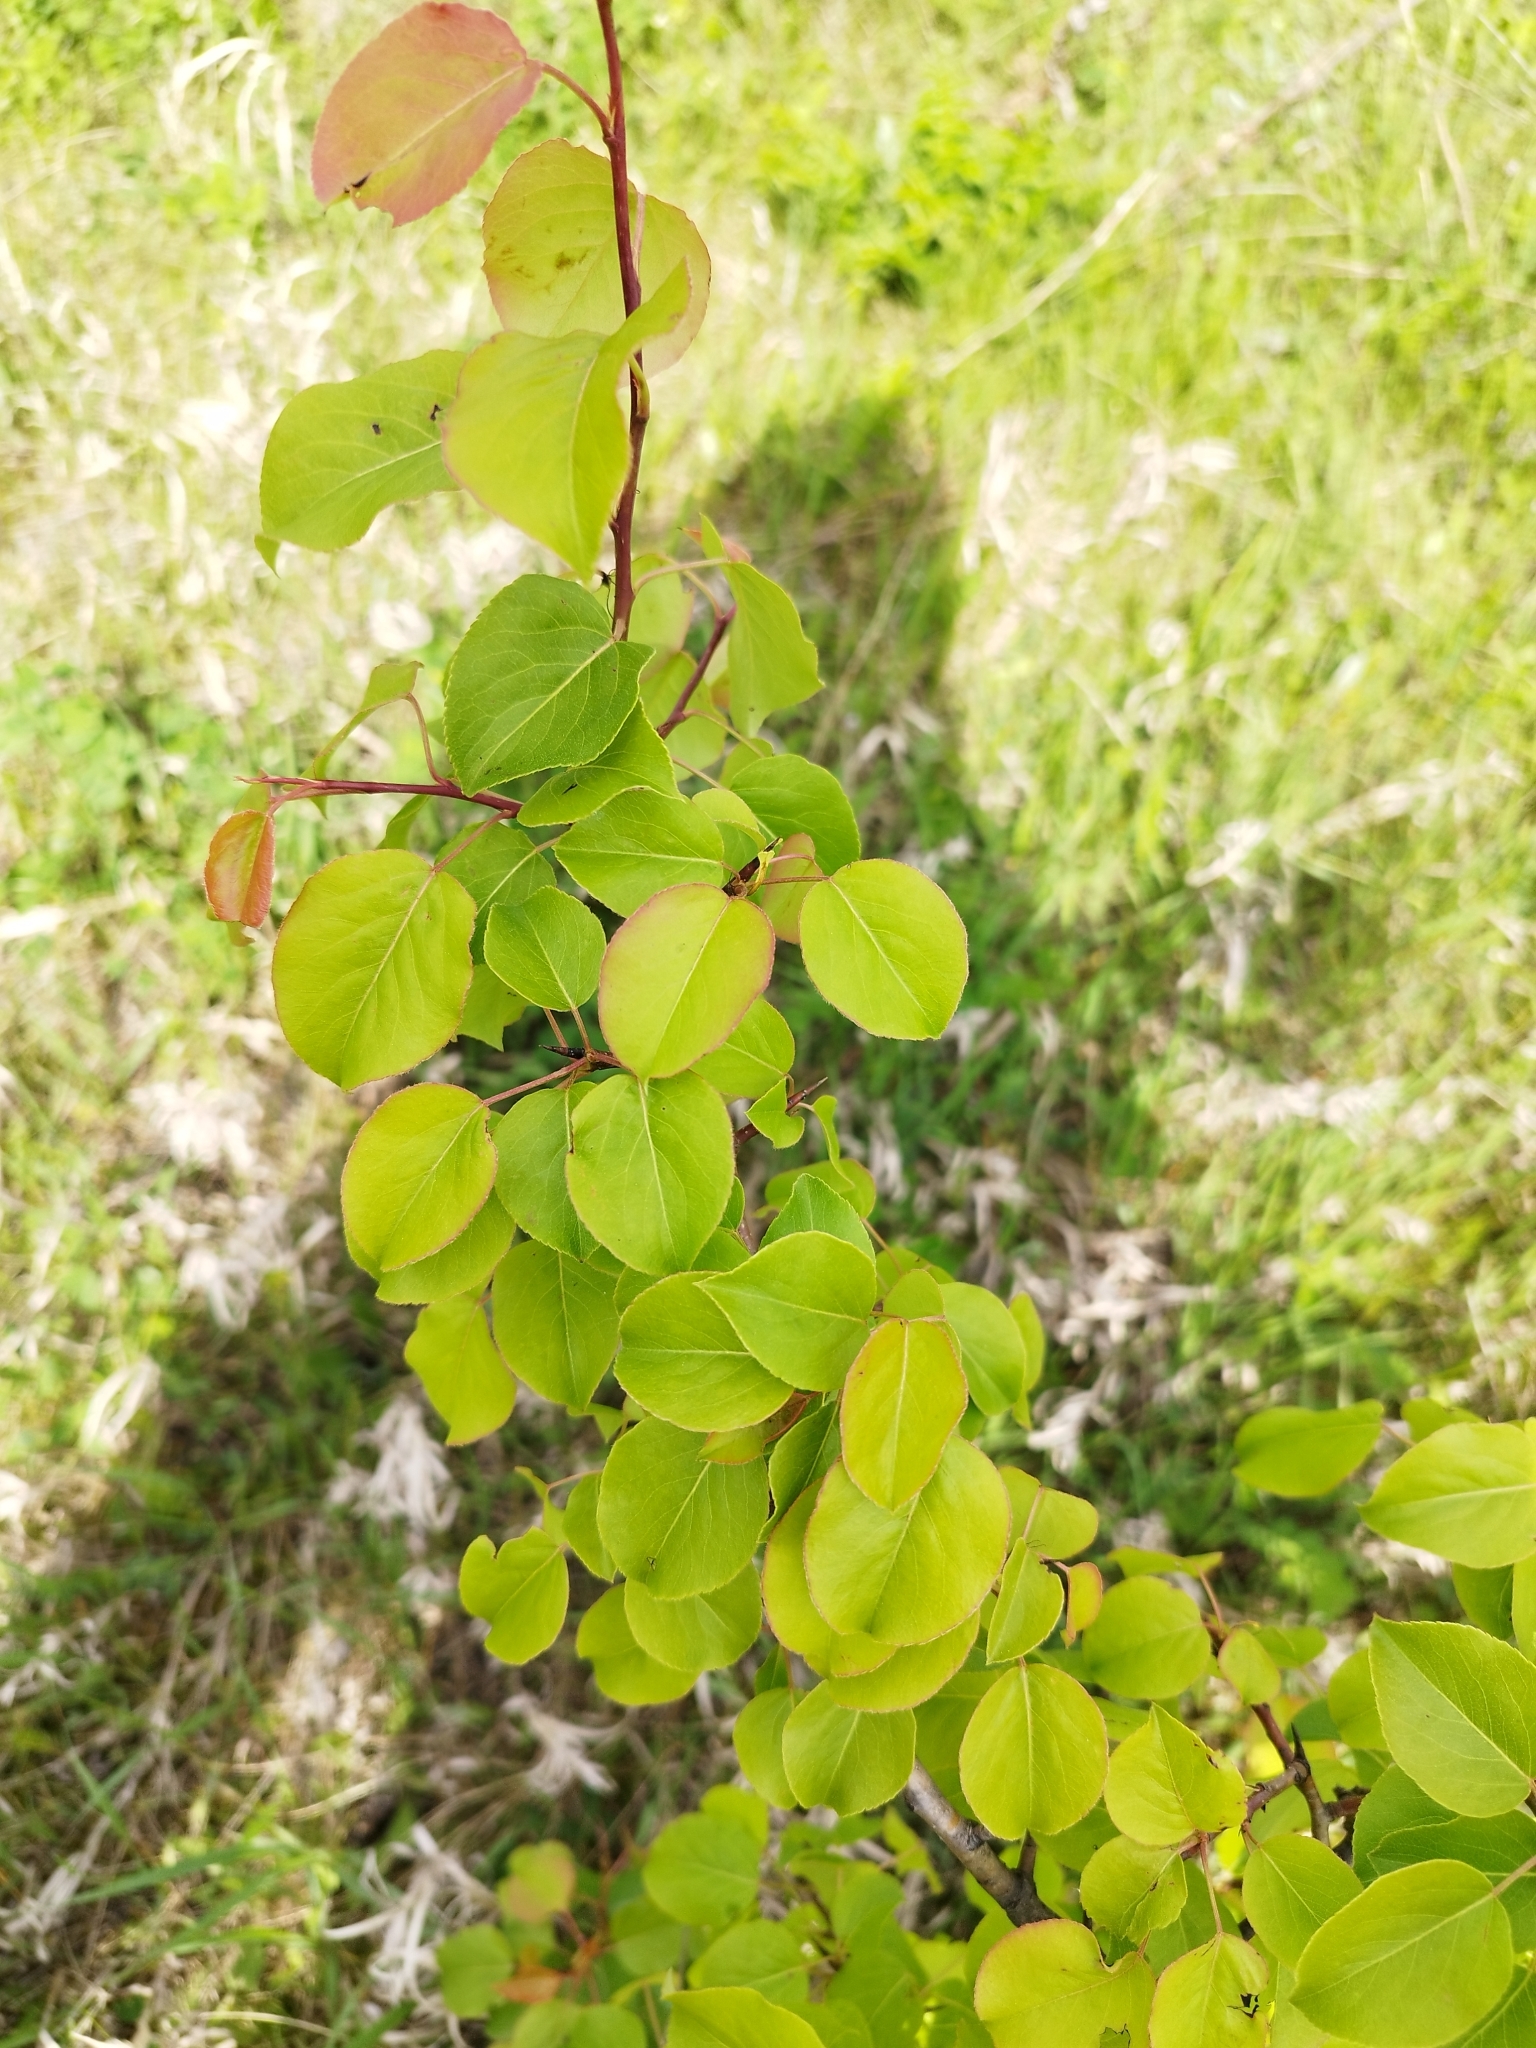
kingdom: Plantae
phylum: Tracheophyta
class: Magnoliopsida
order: Rosales
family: Rosaceae
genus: Pyrus
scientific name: Pyrus communis
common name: Pear
